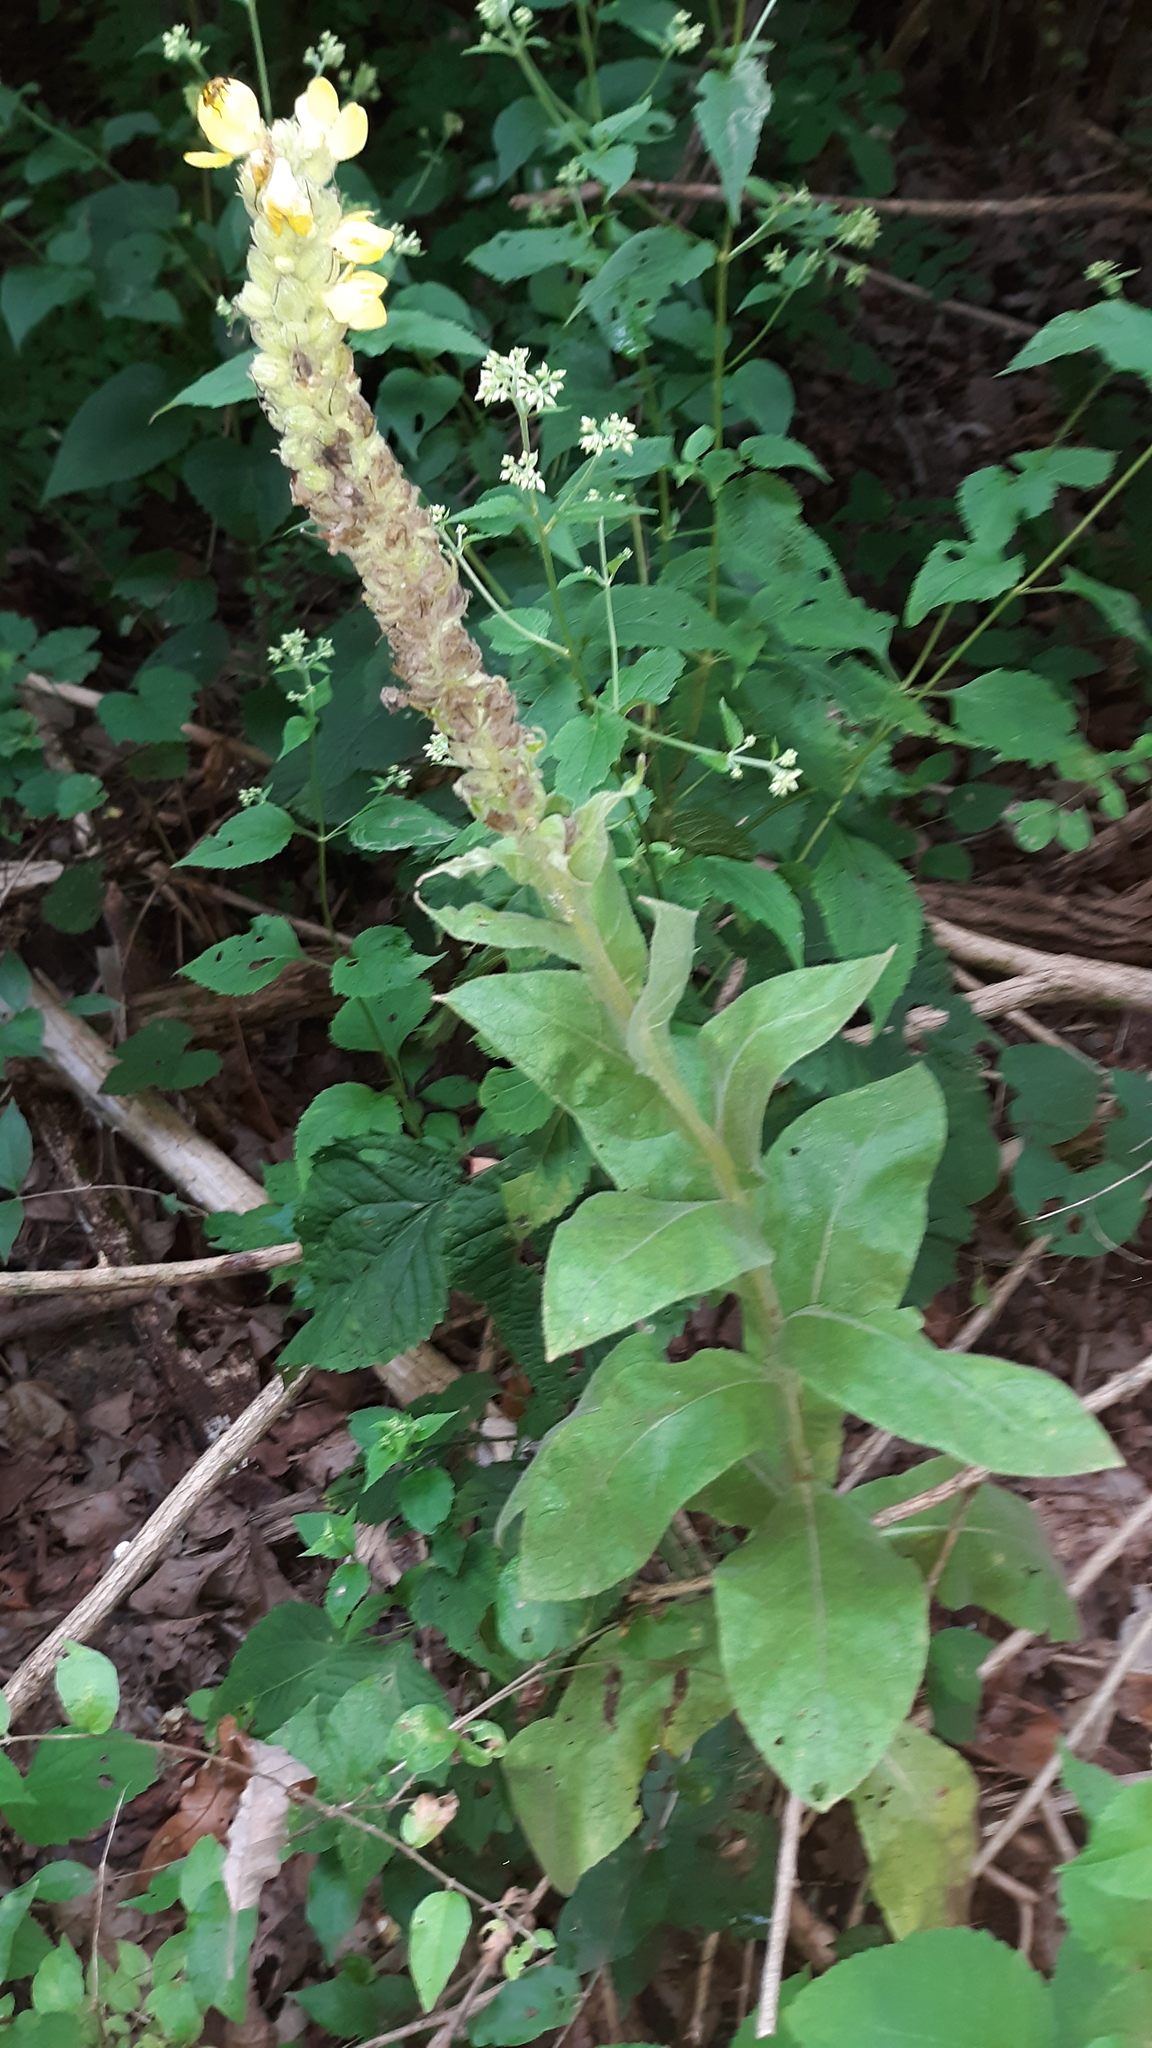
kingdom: Plantae
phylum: Tracheophyta
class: Magnoliopsida
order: Lamiales
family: Scrophulariaceae
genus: Verbascum
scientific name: Verbascum thapsus
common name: Common mullein
